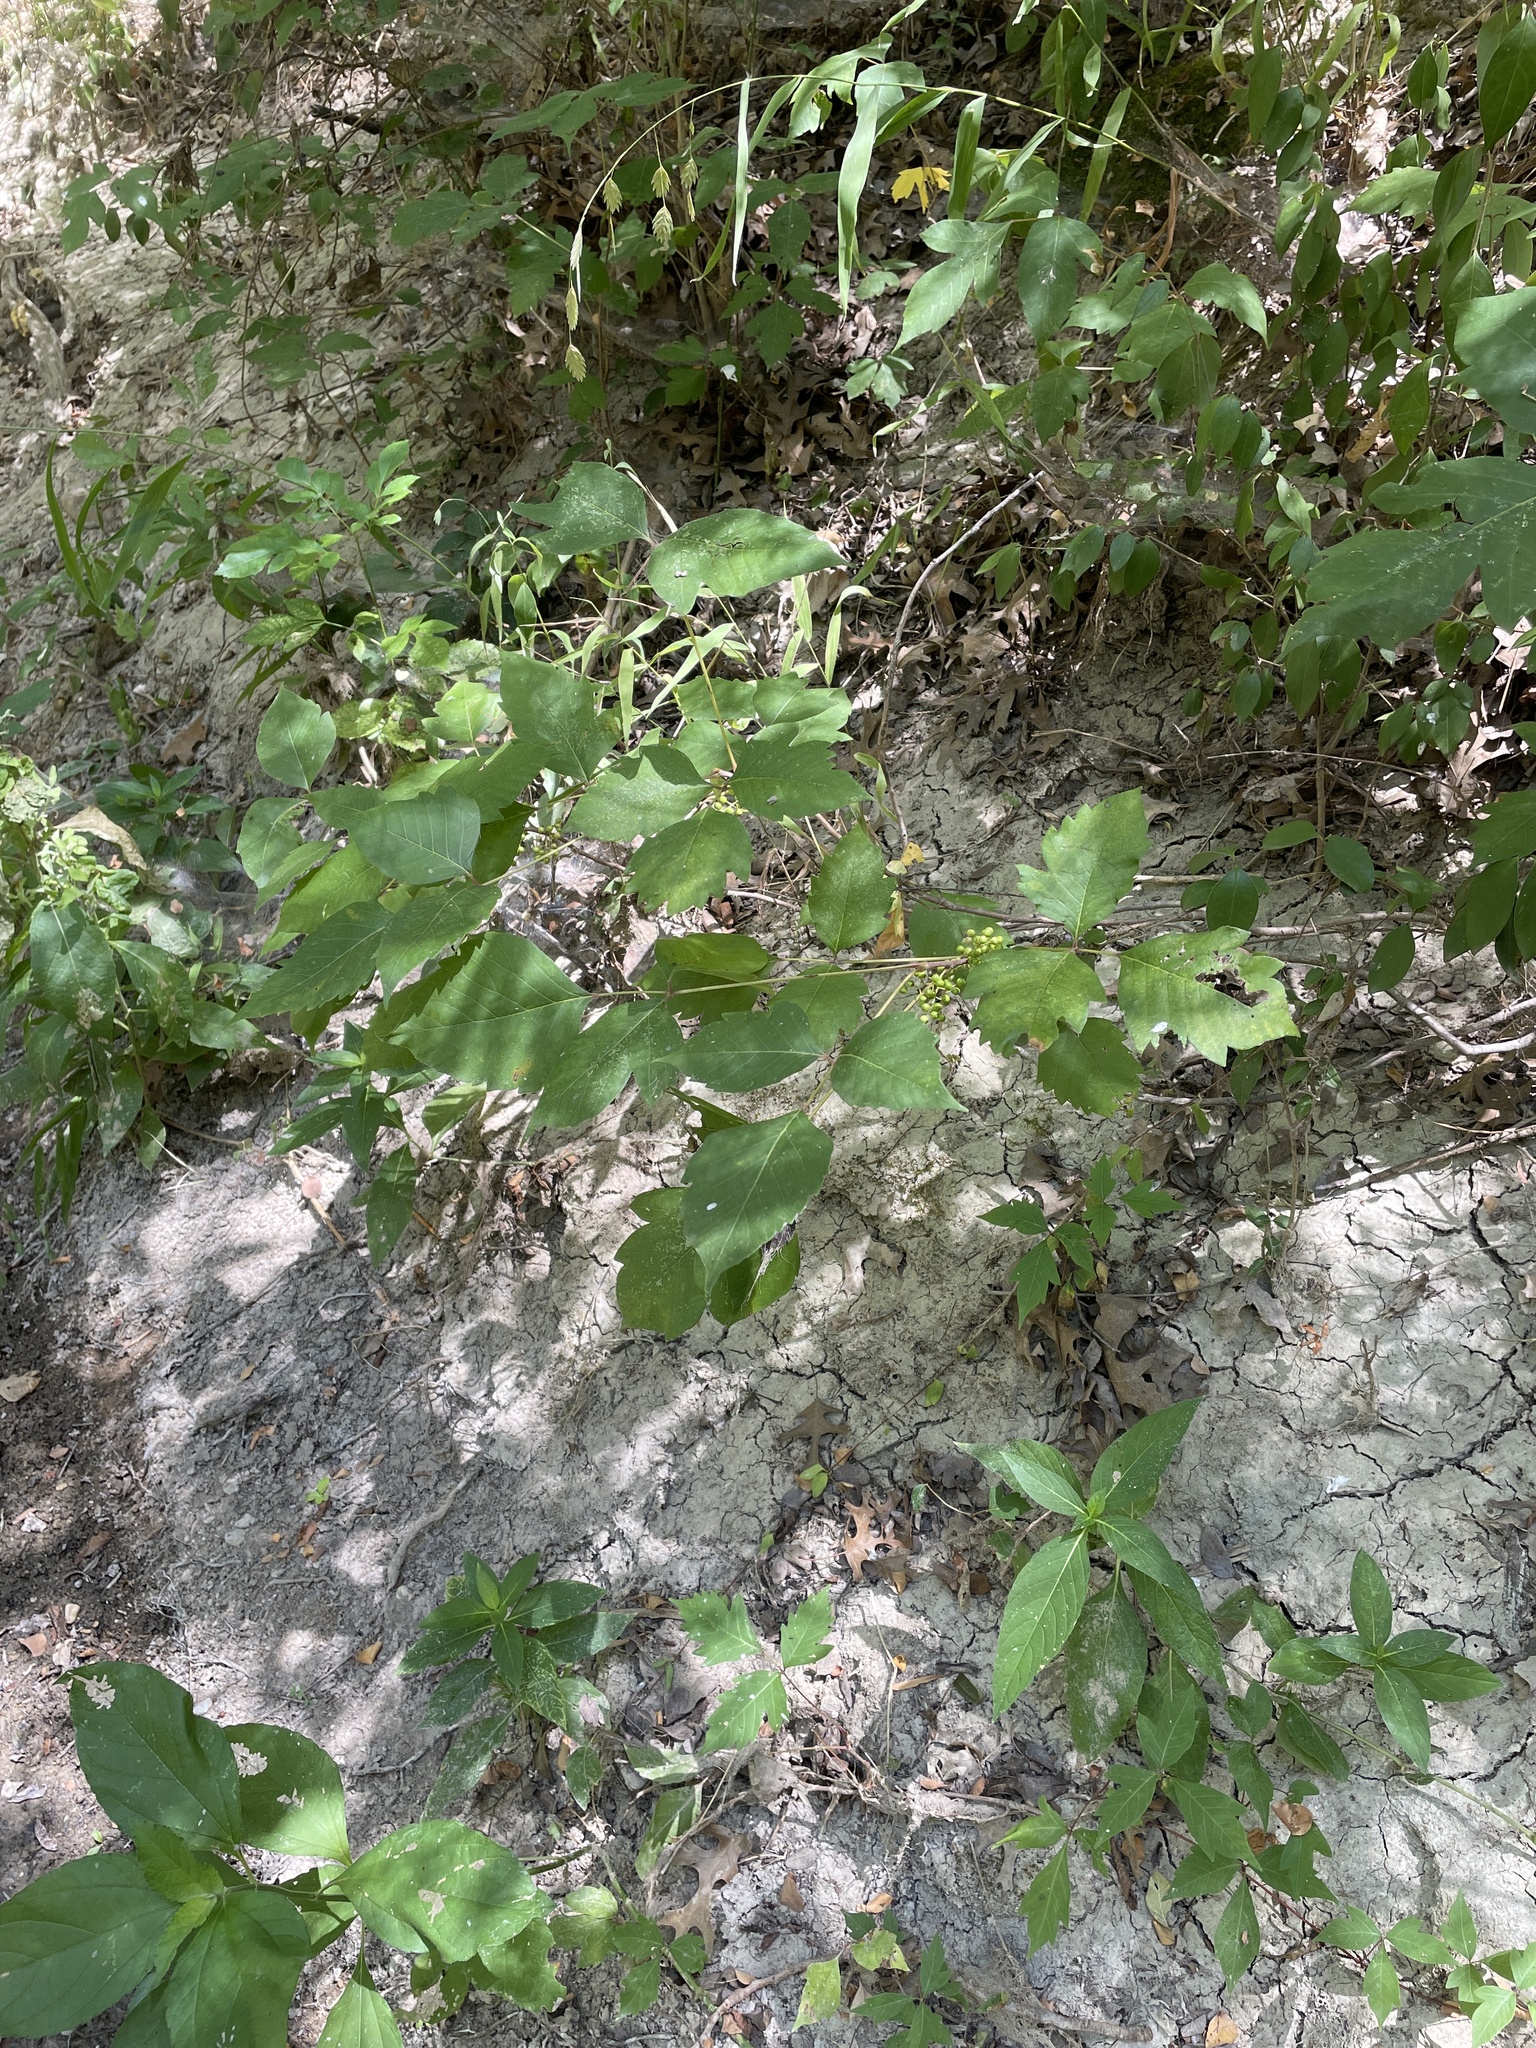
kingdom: Plantae
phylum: Tracheophyta
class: Magnoliopsida
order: Sapindales
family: Anacardiaceae
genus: Toxicodendron
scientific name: Toxicodendron radicans
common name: Poison ivy
